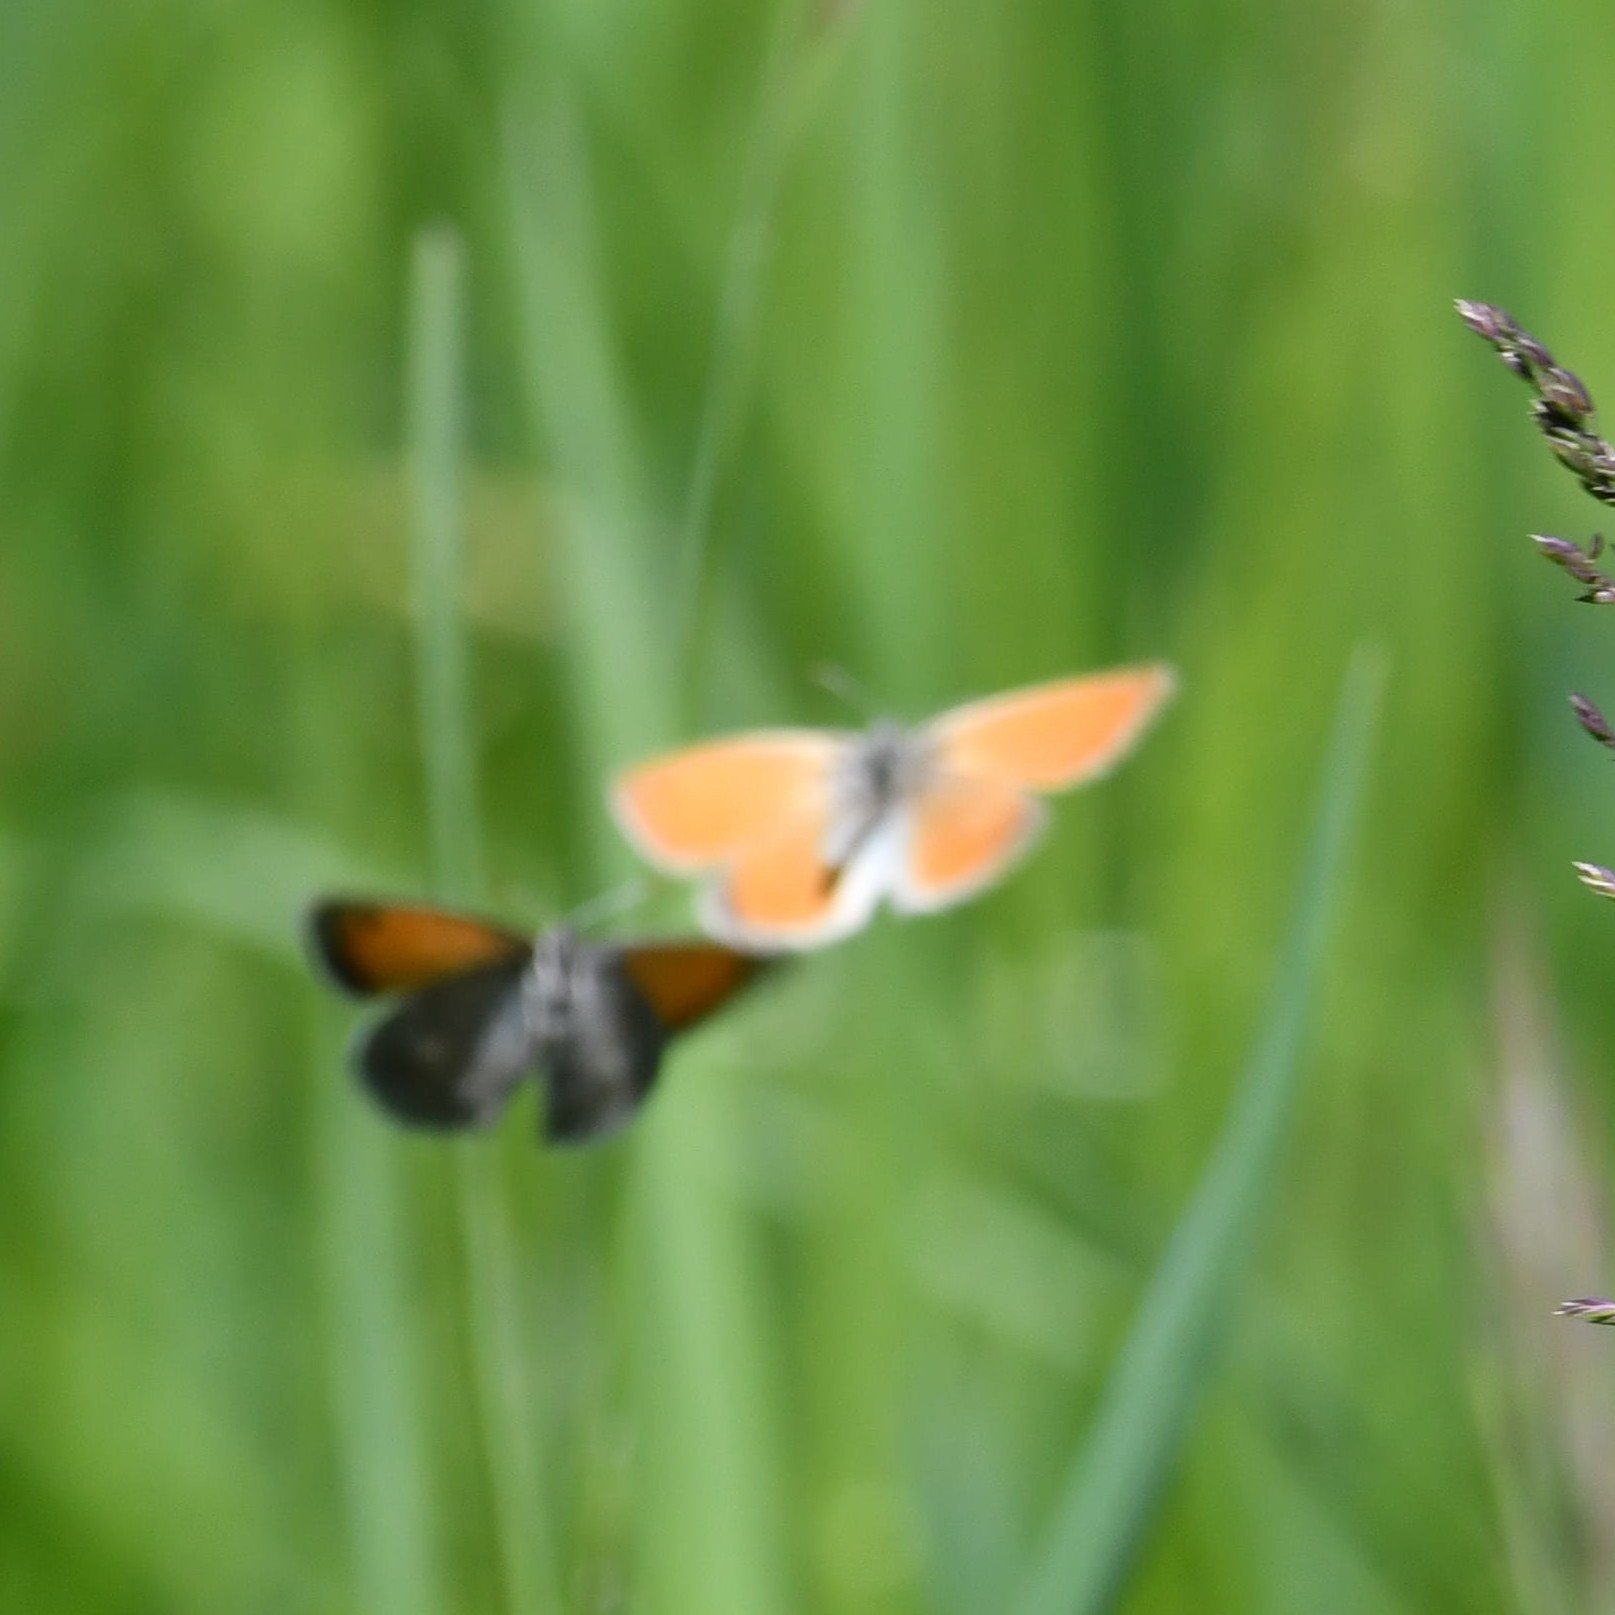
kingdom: Animalia
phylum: Arthropoda
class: Insecta
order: Lepidoptera
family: Nymphalidae
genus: Coenonympha
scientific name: Coenonympha pamphilus
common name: Small heath
